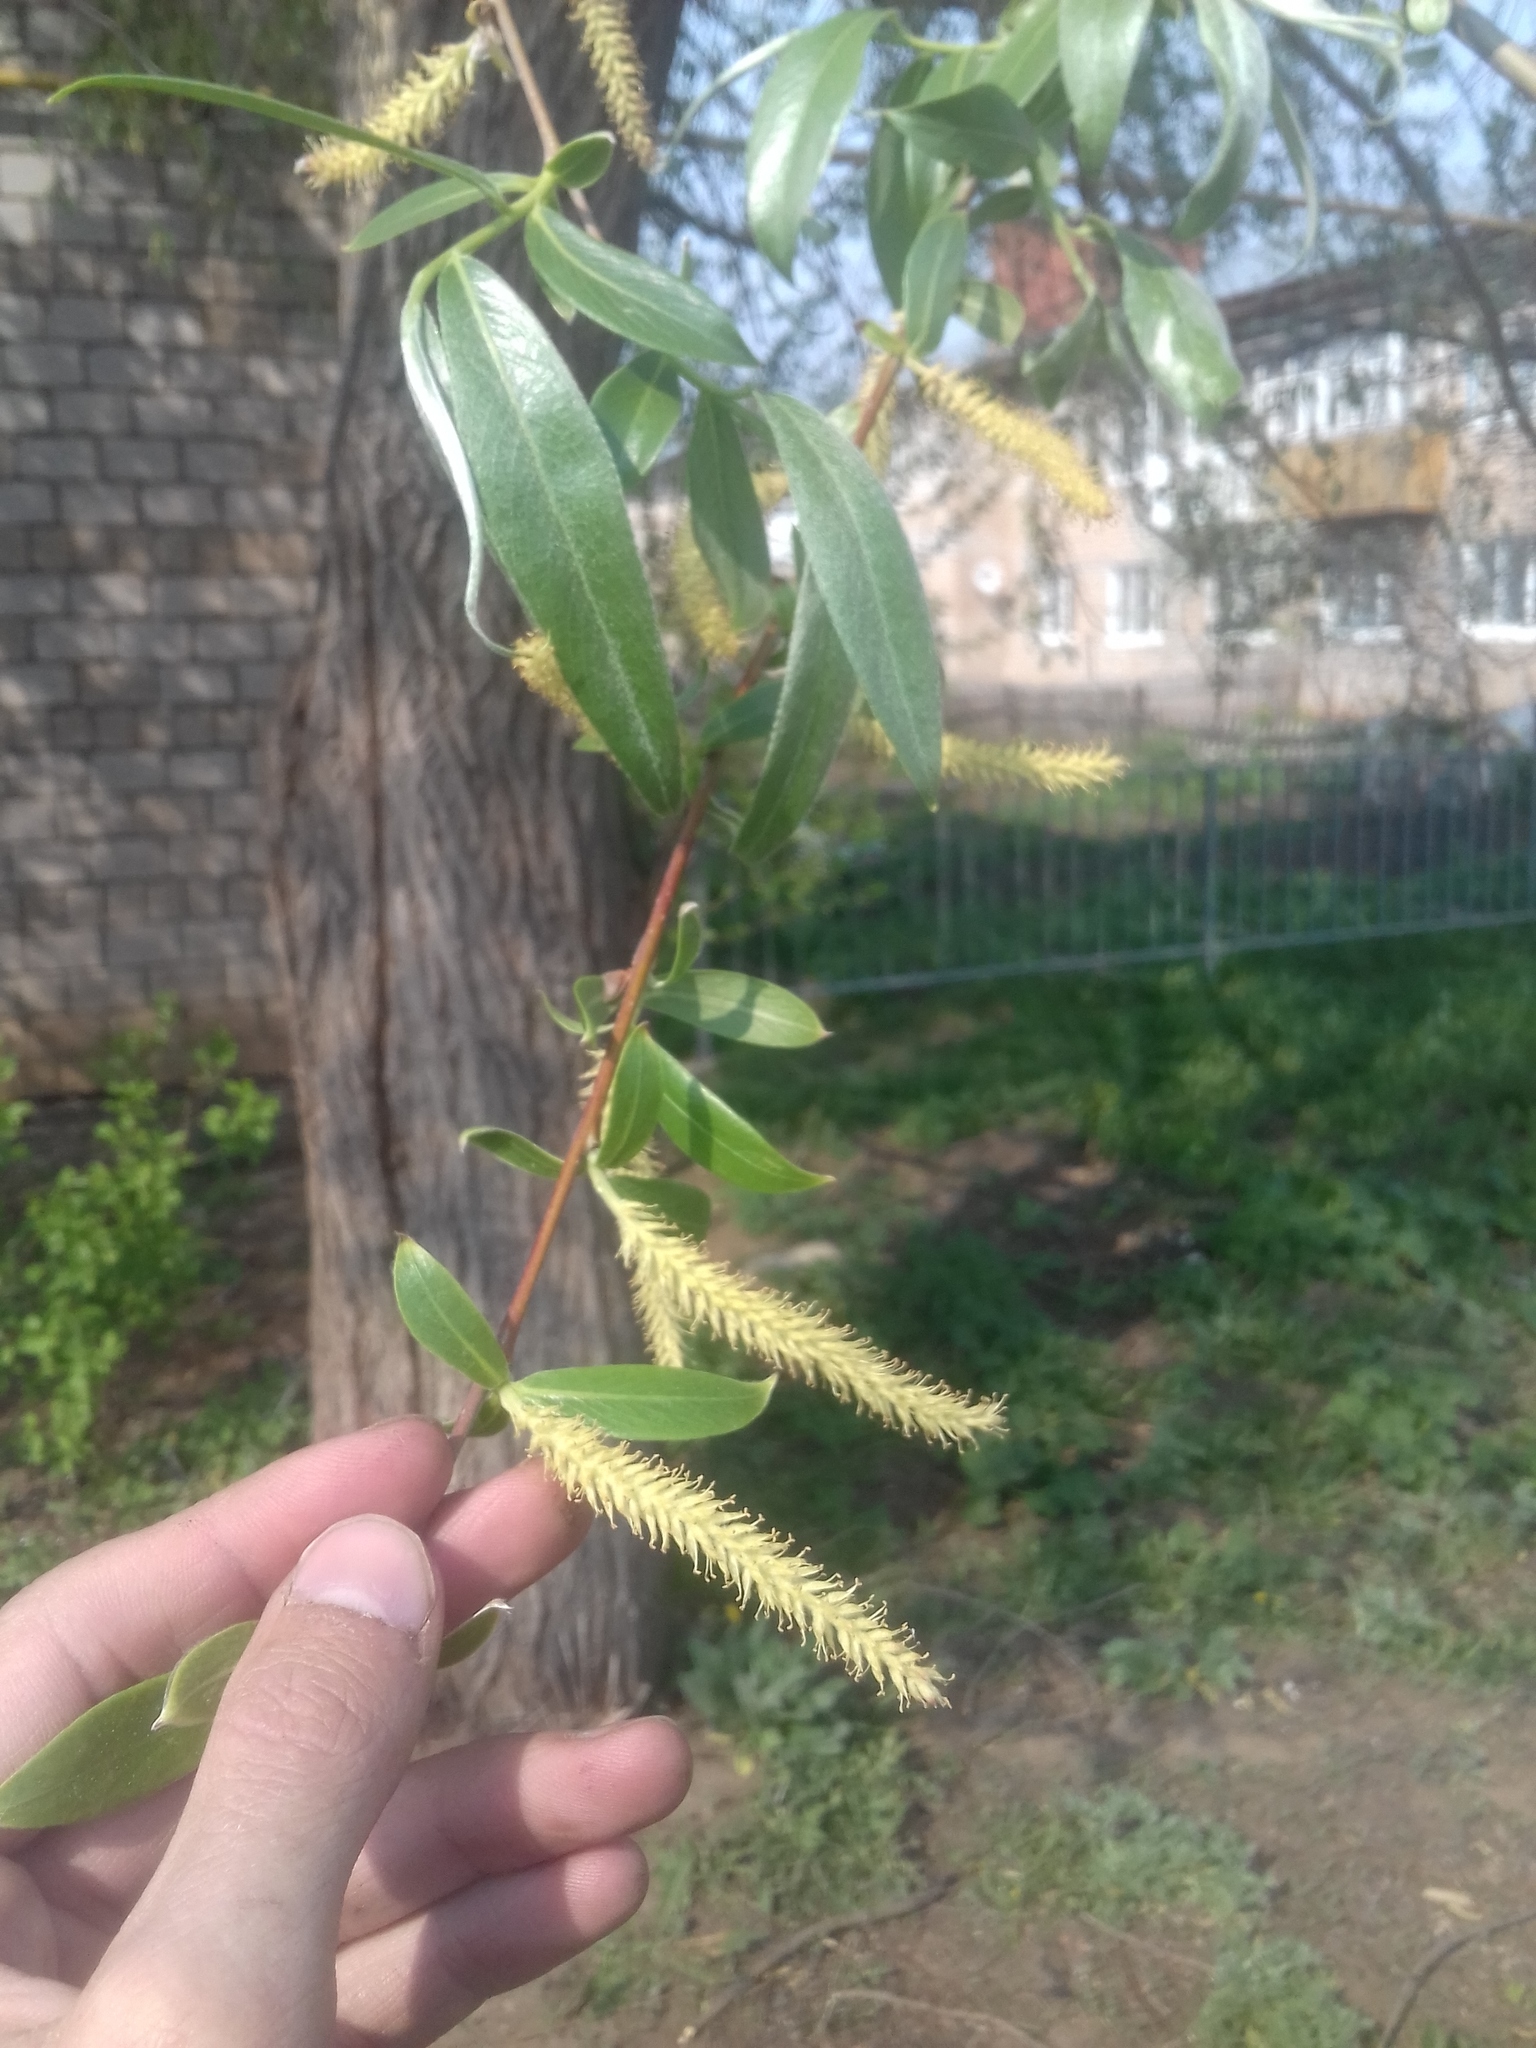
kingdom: Plantae
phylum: Tracheophyta
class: Magnoliopsida
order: Malpighiales
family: Salicaceae
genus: Salix
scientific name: Salix alba
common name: White willow
